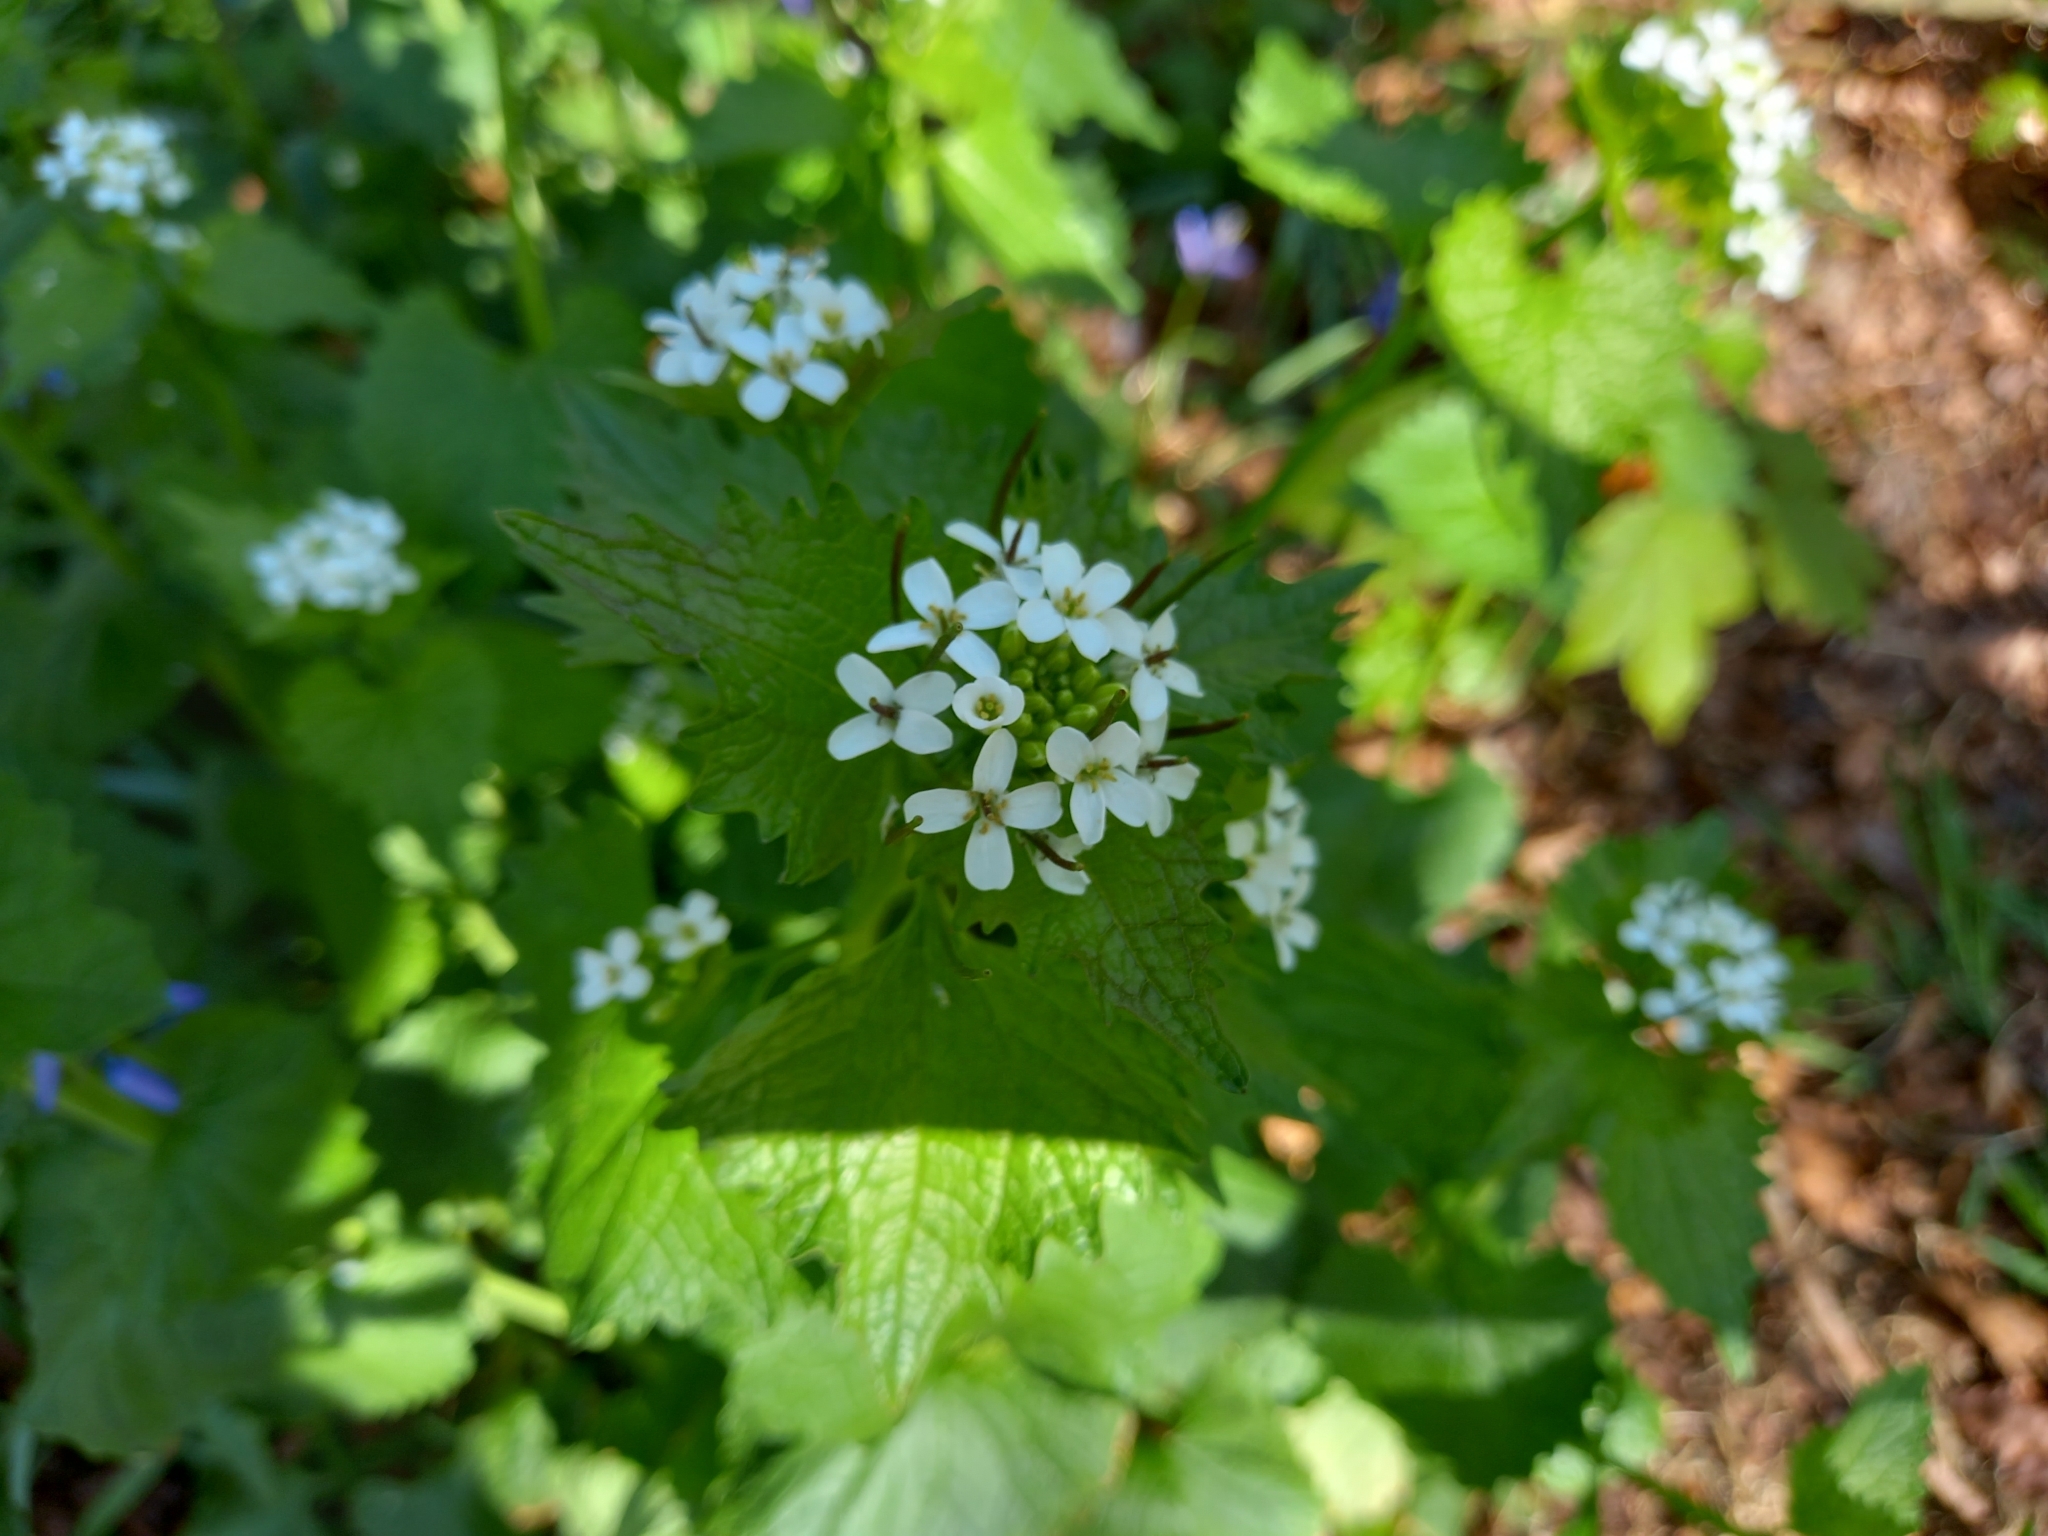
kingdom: Plantae
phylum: Tracheophyta
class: Magnoliopsida
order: Brassicales
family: Brassicaceae
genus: Alliaria
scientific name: Alliaria petiolata
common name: Garlic mustard
